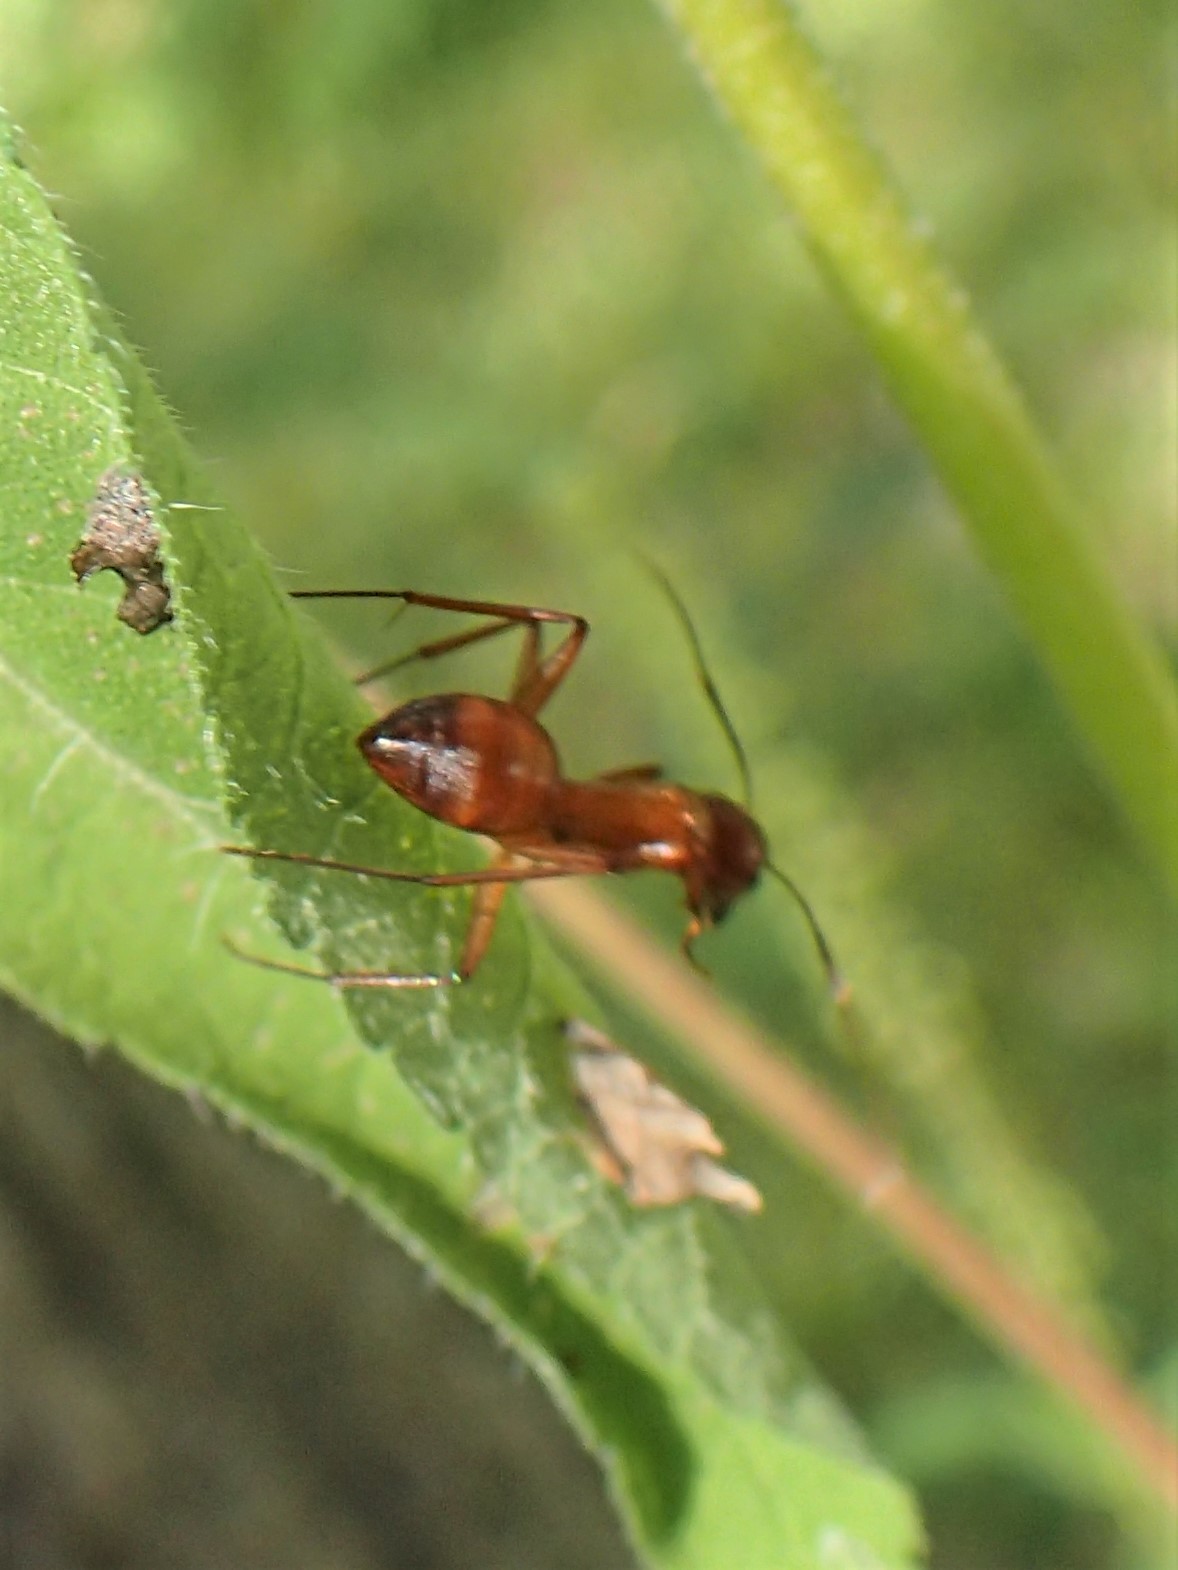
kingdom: Animalia
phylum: Arthropoda
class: Insecta
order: Hymenoptera
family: Formicidae
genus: Camponotus
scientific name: Camponotus castaneus
